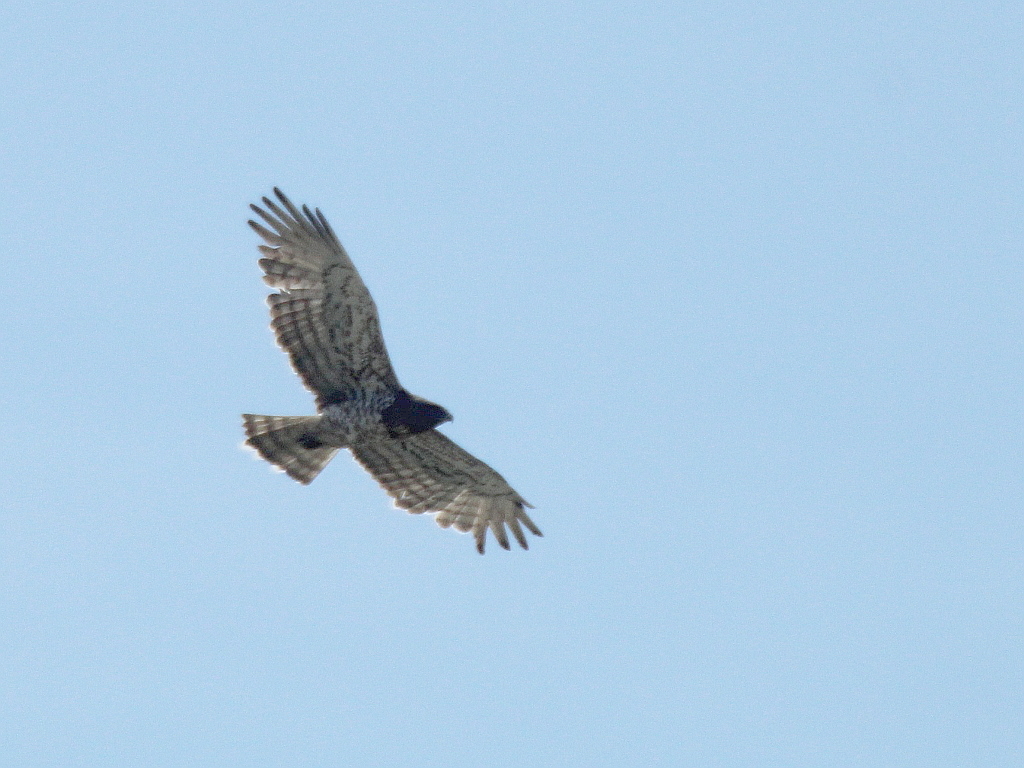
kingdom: Animalia
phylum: Chordata
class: Aves
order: Accipitriformes
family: Accipitridae
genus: Circaetus
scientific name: Circaetus gallicus
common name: Short-toed snake eagle
